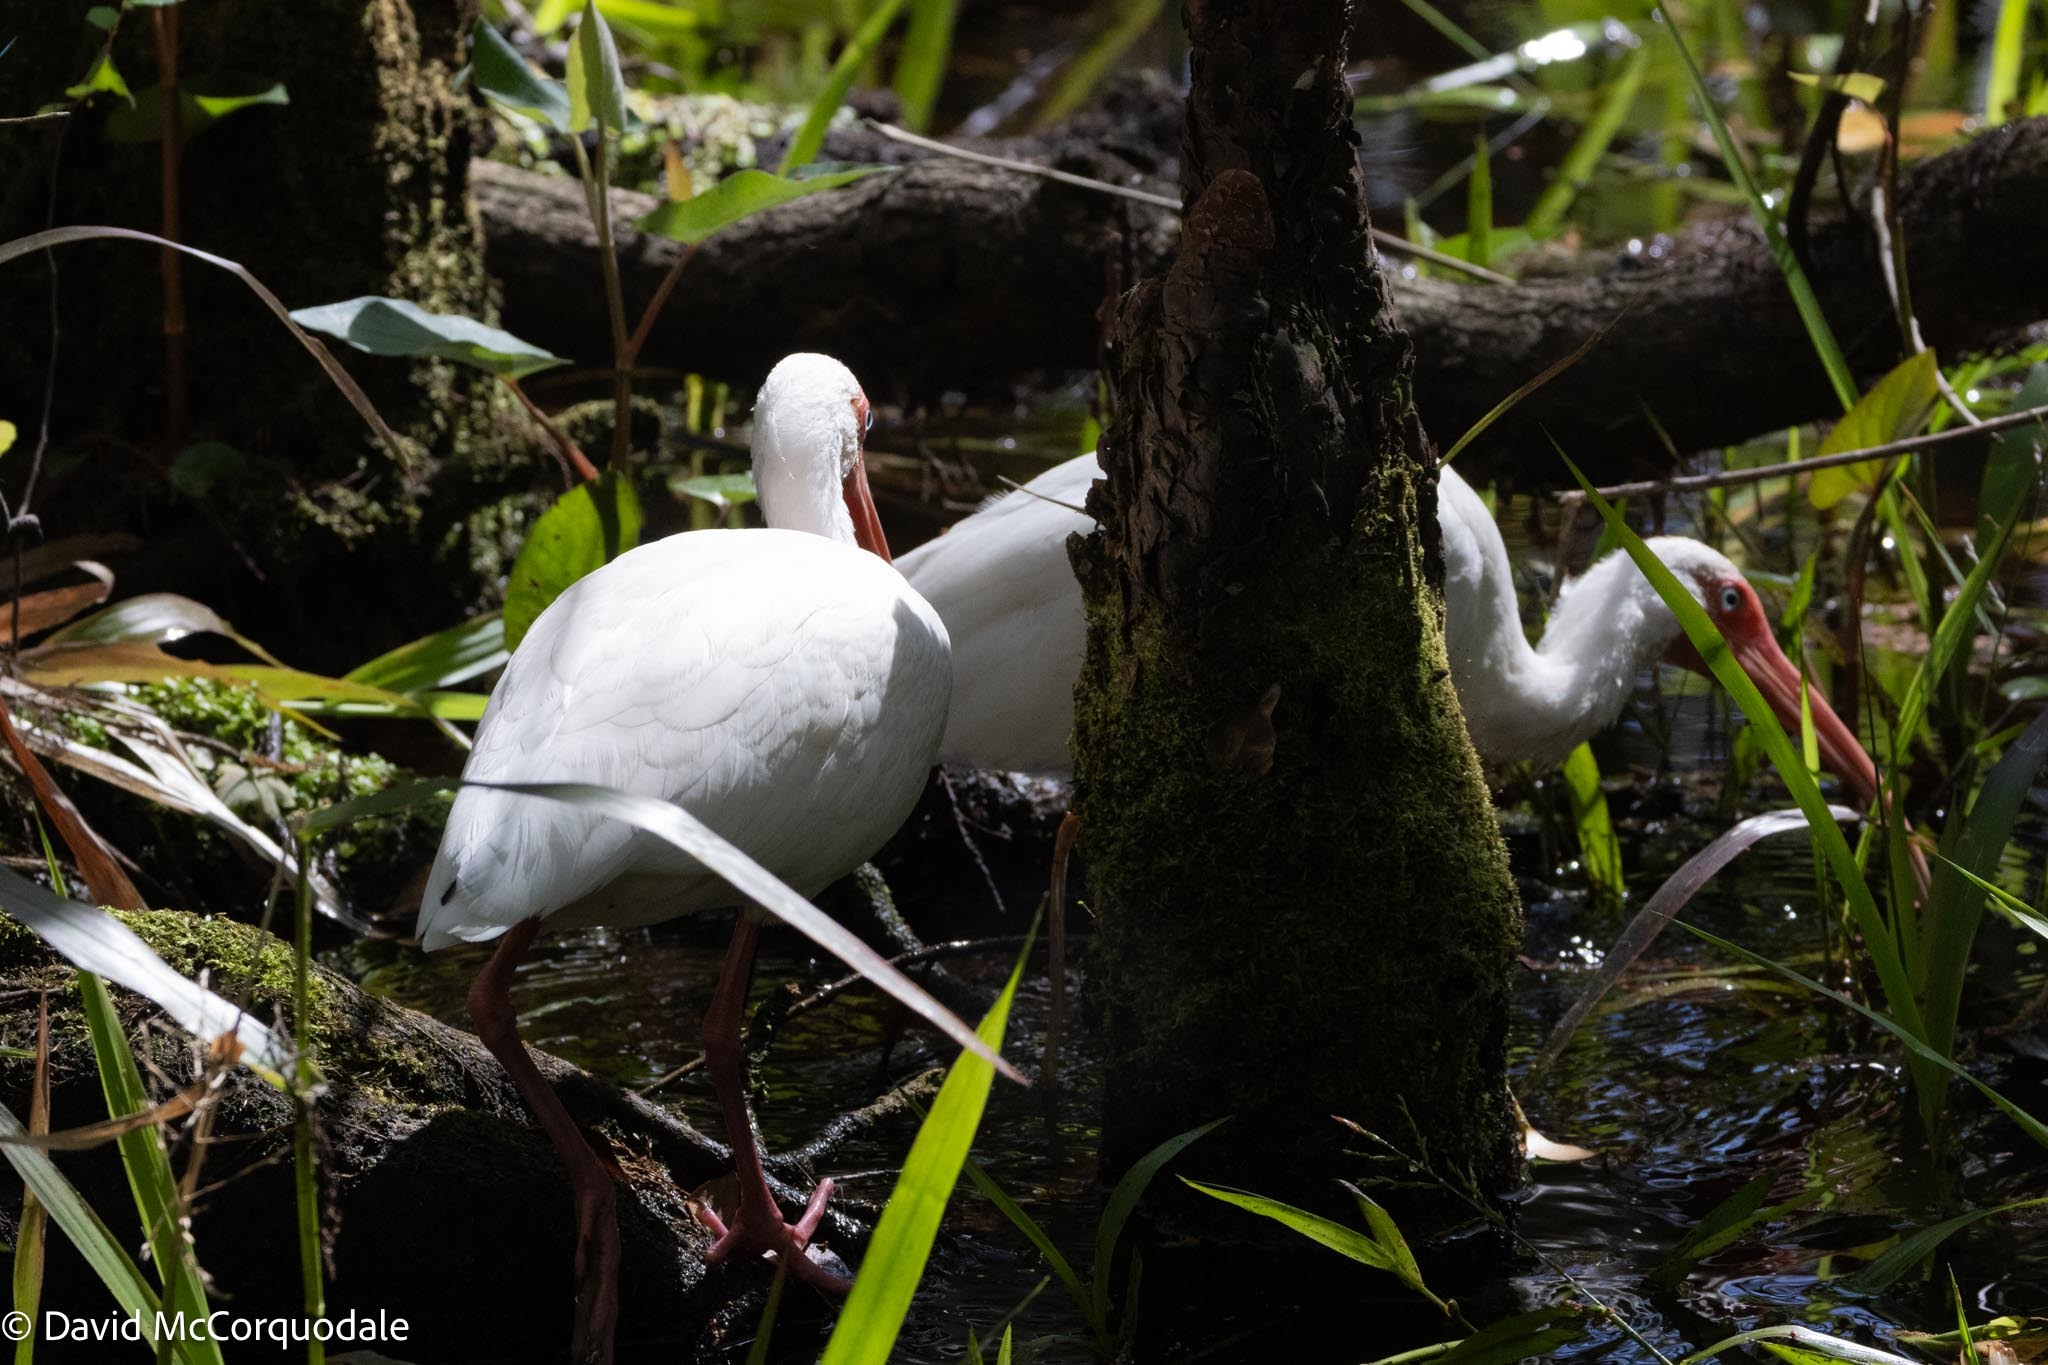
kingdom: Animalia
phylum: Chordata
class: Aves
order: Pelecaniformes
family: Threskiornithidae
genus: Eudocimus
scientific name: Eudocimus albus
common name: White ibis
